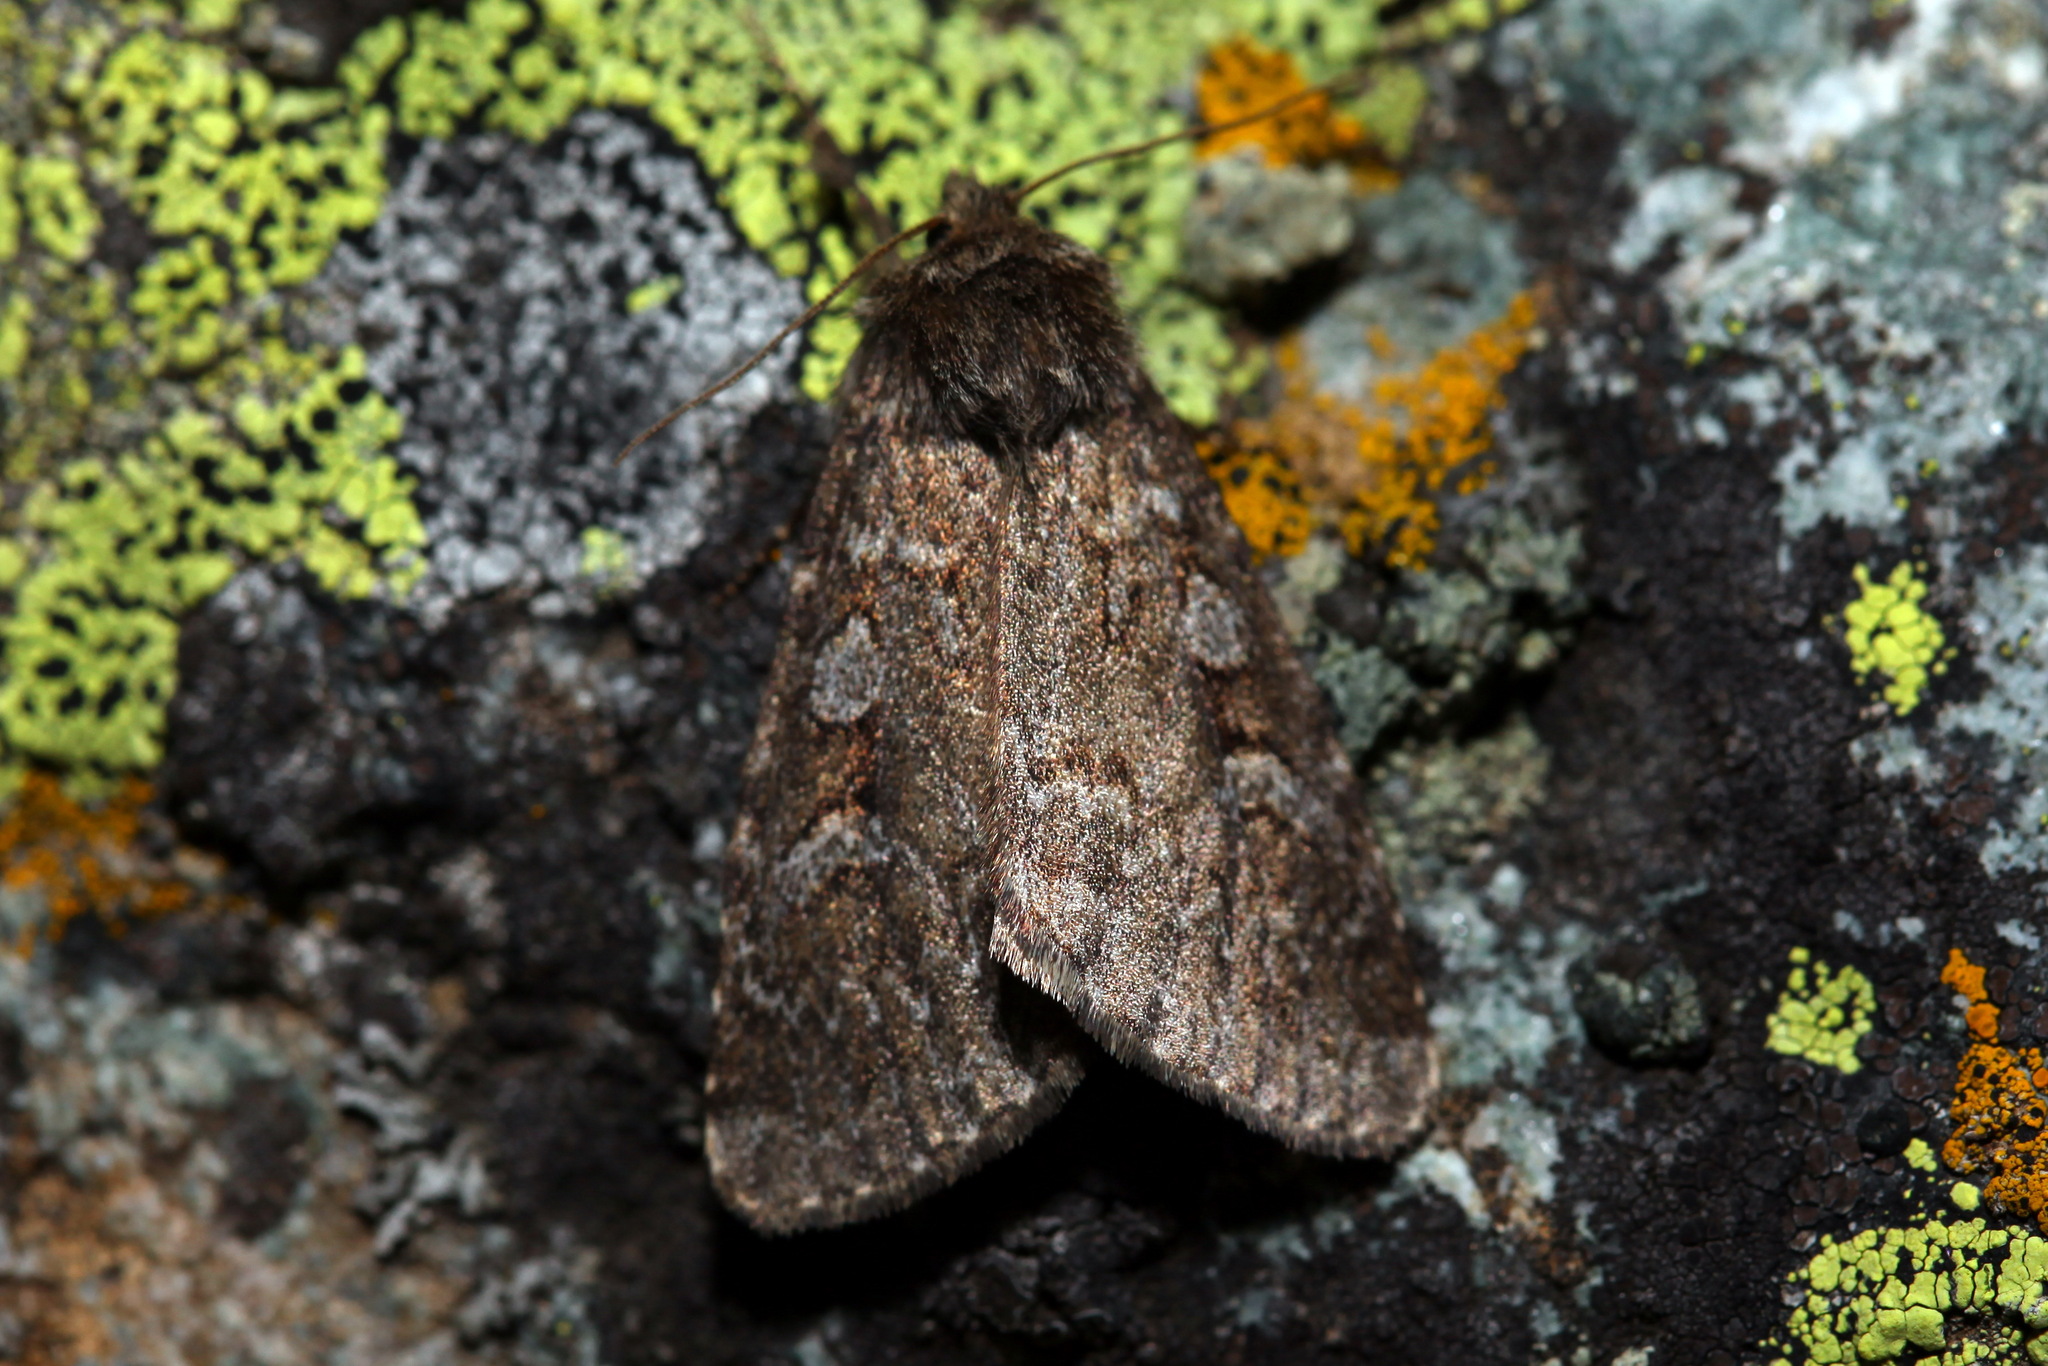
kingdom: Animalia
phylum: Arthropoda
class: Insecta
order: Lepidoptera
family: Noctuidae
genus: Xestia
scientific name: Xestia laetabilis
